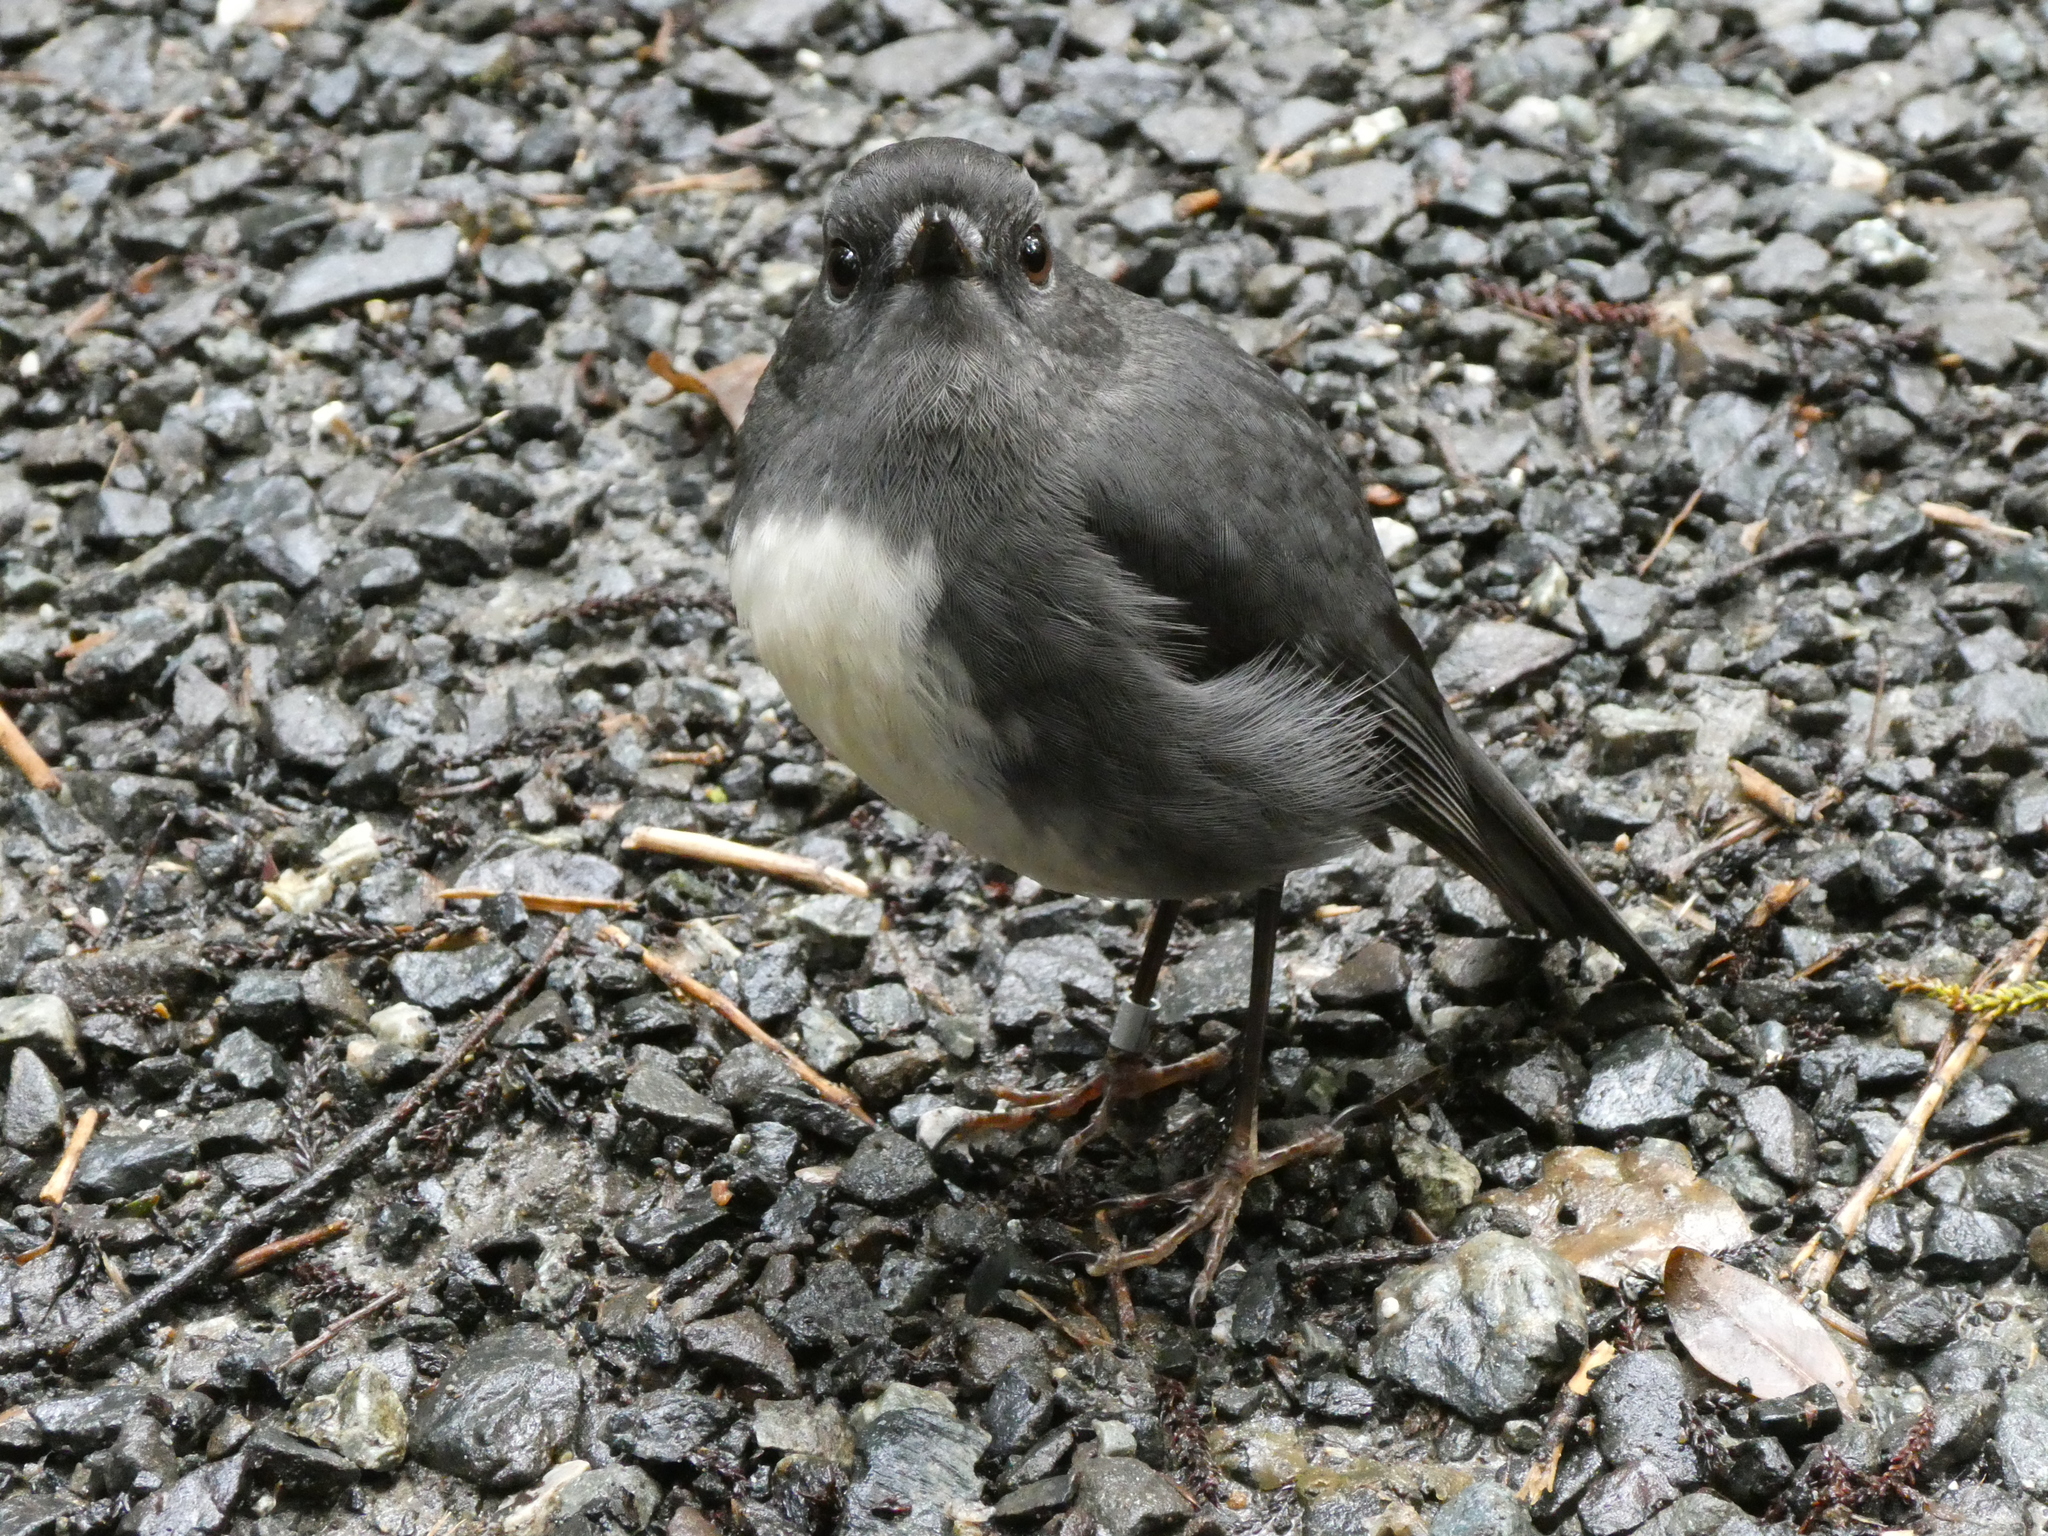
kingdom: Animalia
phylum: Chordata
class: Aves
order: Passeriformes
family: Petroicidae
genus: Petroica
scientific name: Petroica australis
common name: New zealand robin
